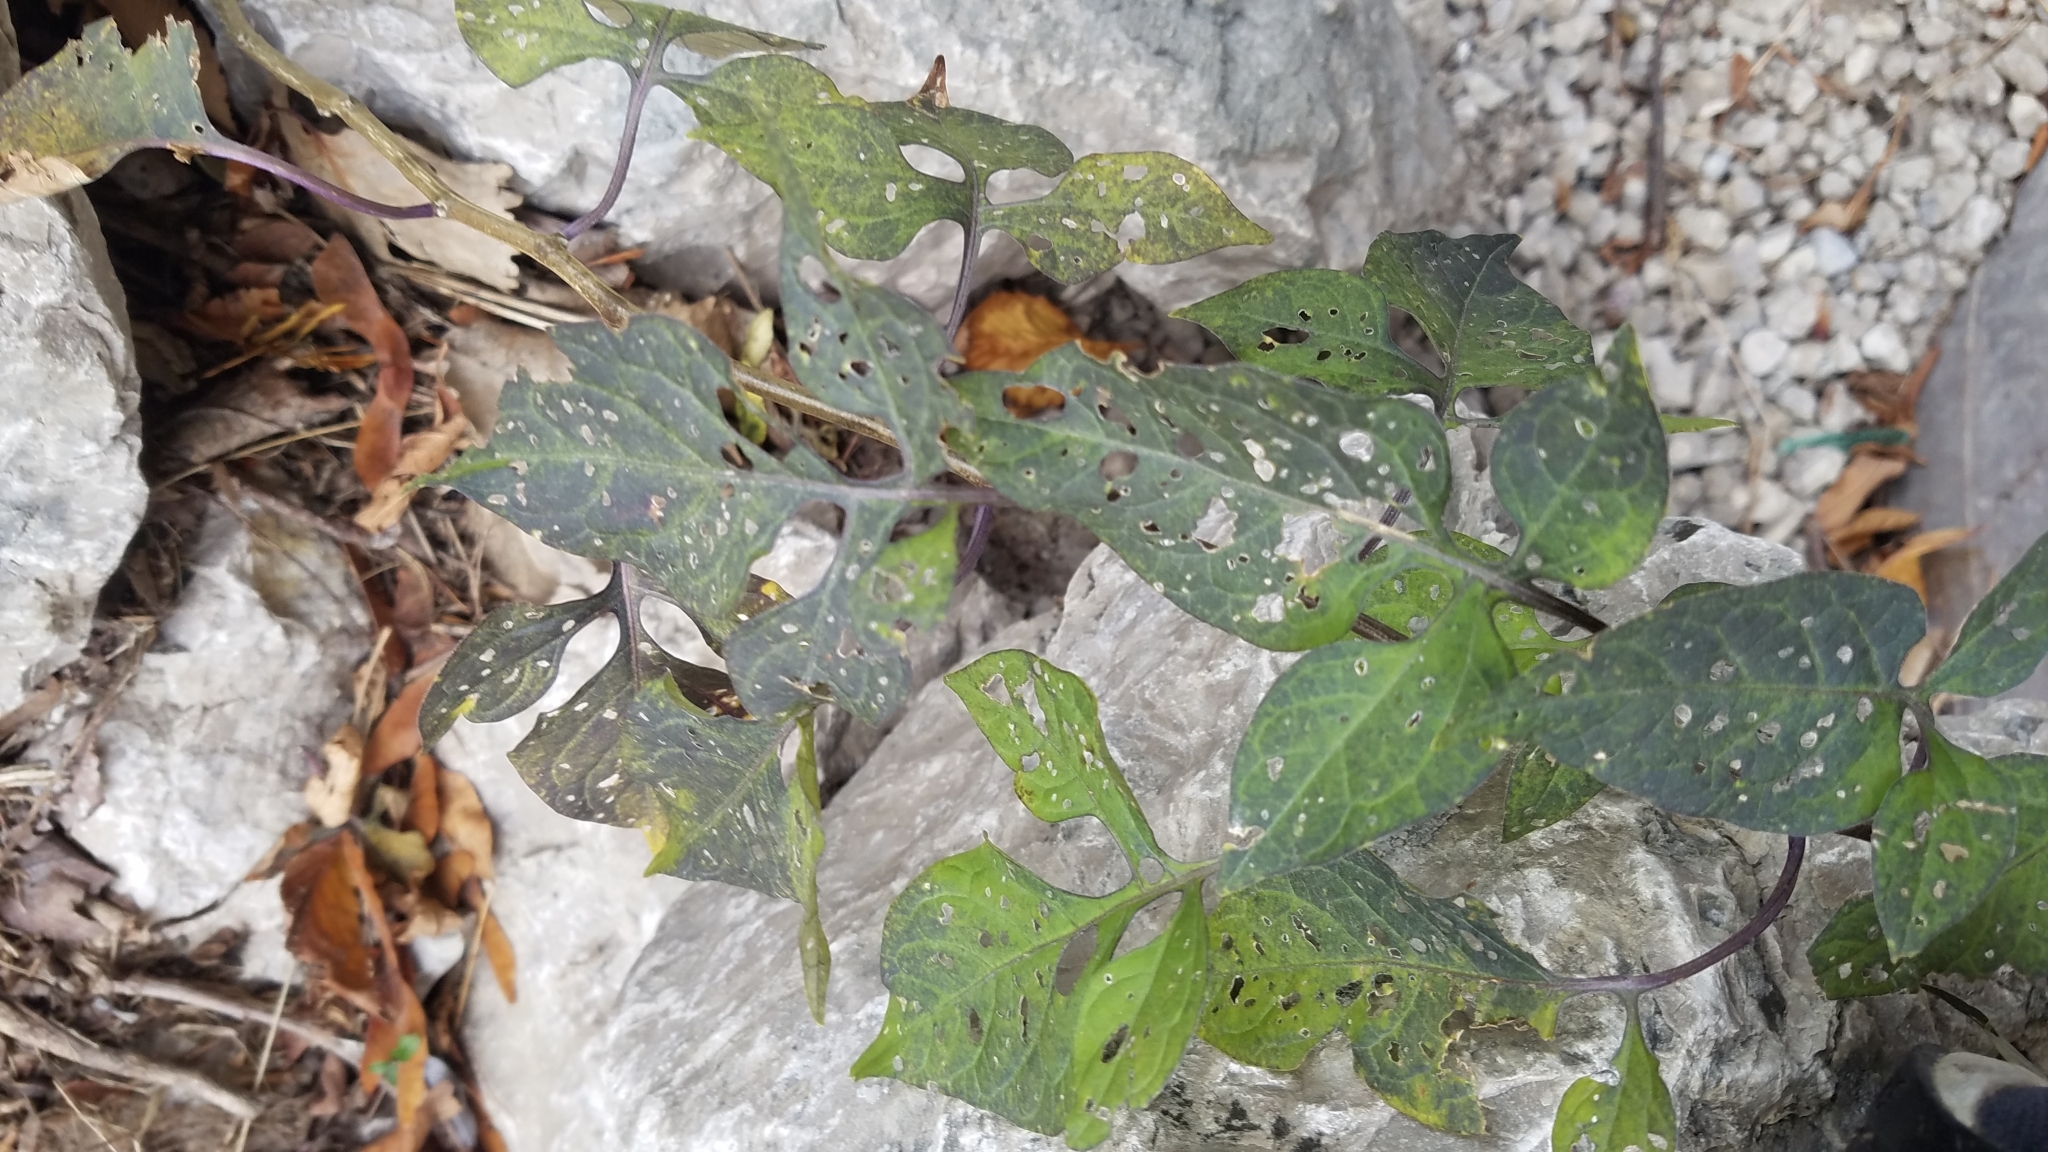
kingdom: Plantae
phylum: Tracheophyta
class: Magnoliopsida
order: Solanales
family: Solanaceae
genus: Solanum
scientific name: Solanum dulcamara
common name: Climbing nightshade
